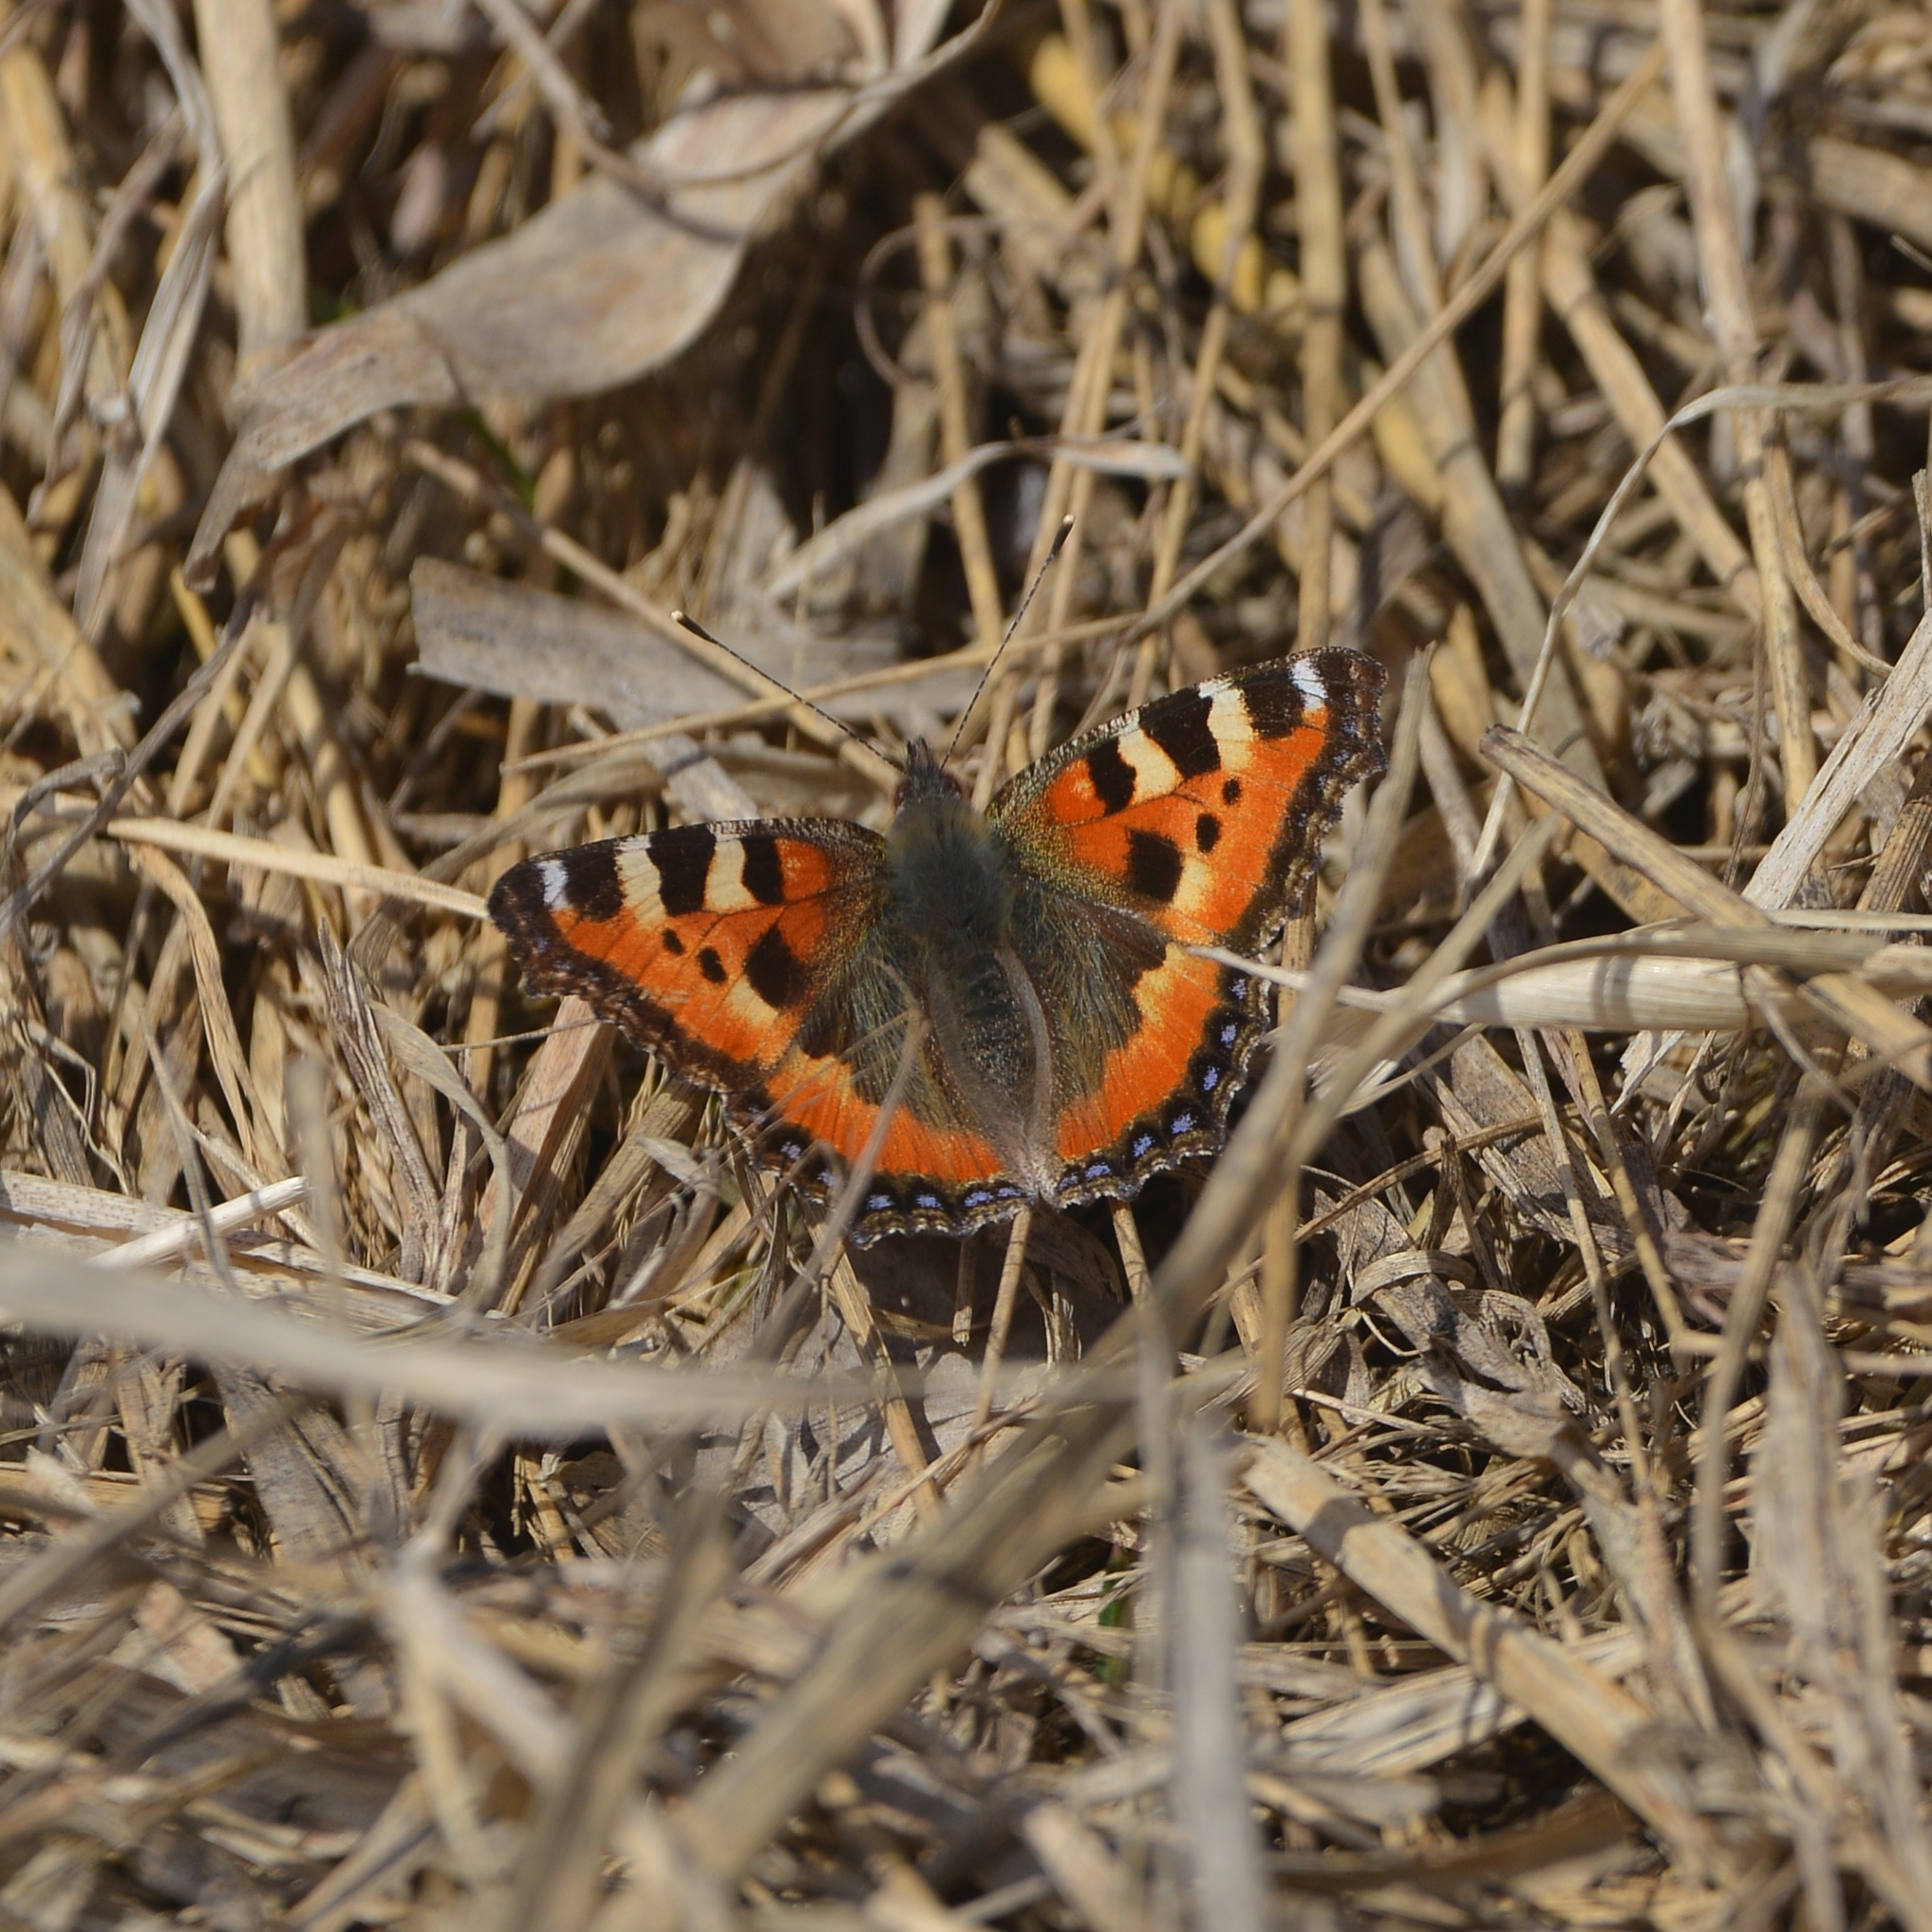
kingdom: Animalia
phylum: Arthropoda
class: Insecta
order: Lepidoptera
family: Nymphalidae
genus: Aglais
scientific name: Aglais urticae
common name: Small tortoiseshell
